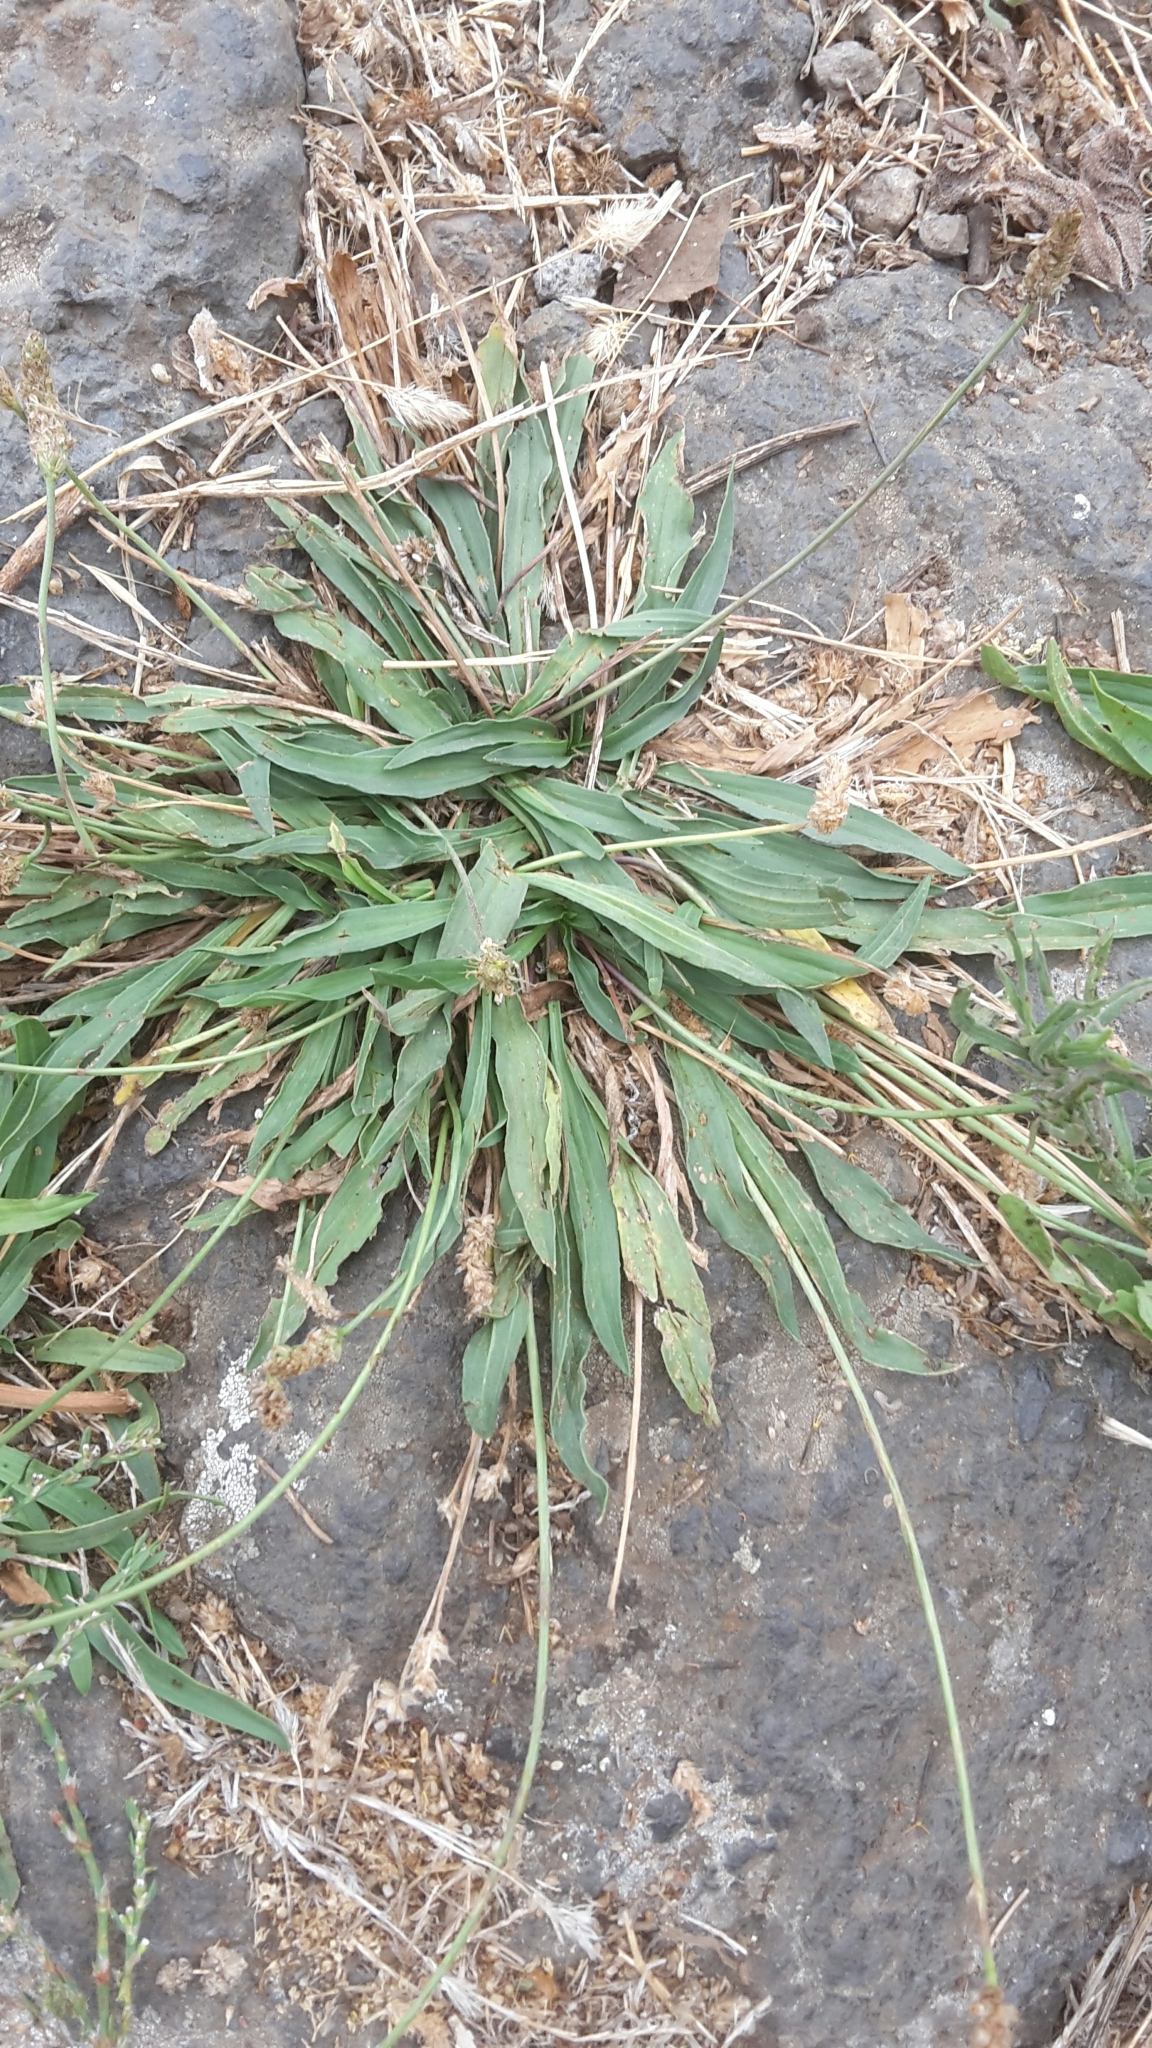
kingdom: Plantae
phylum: Tracheophyta
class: Magnoliopsida
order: Lamiales
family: Plantaginaceae
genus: Plantago
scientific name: Plantago coronopus
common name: Buck's-horn plantain
